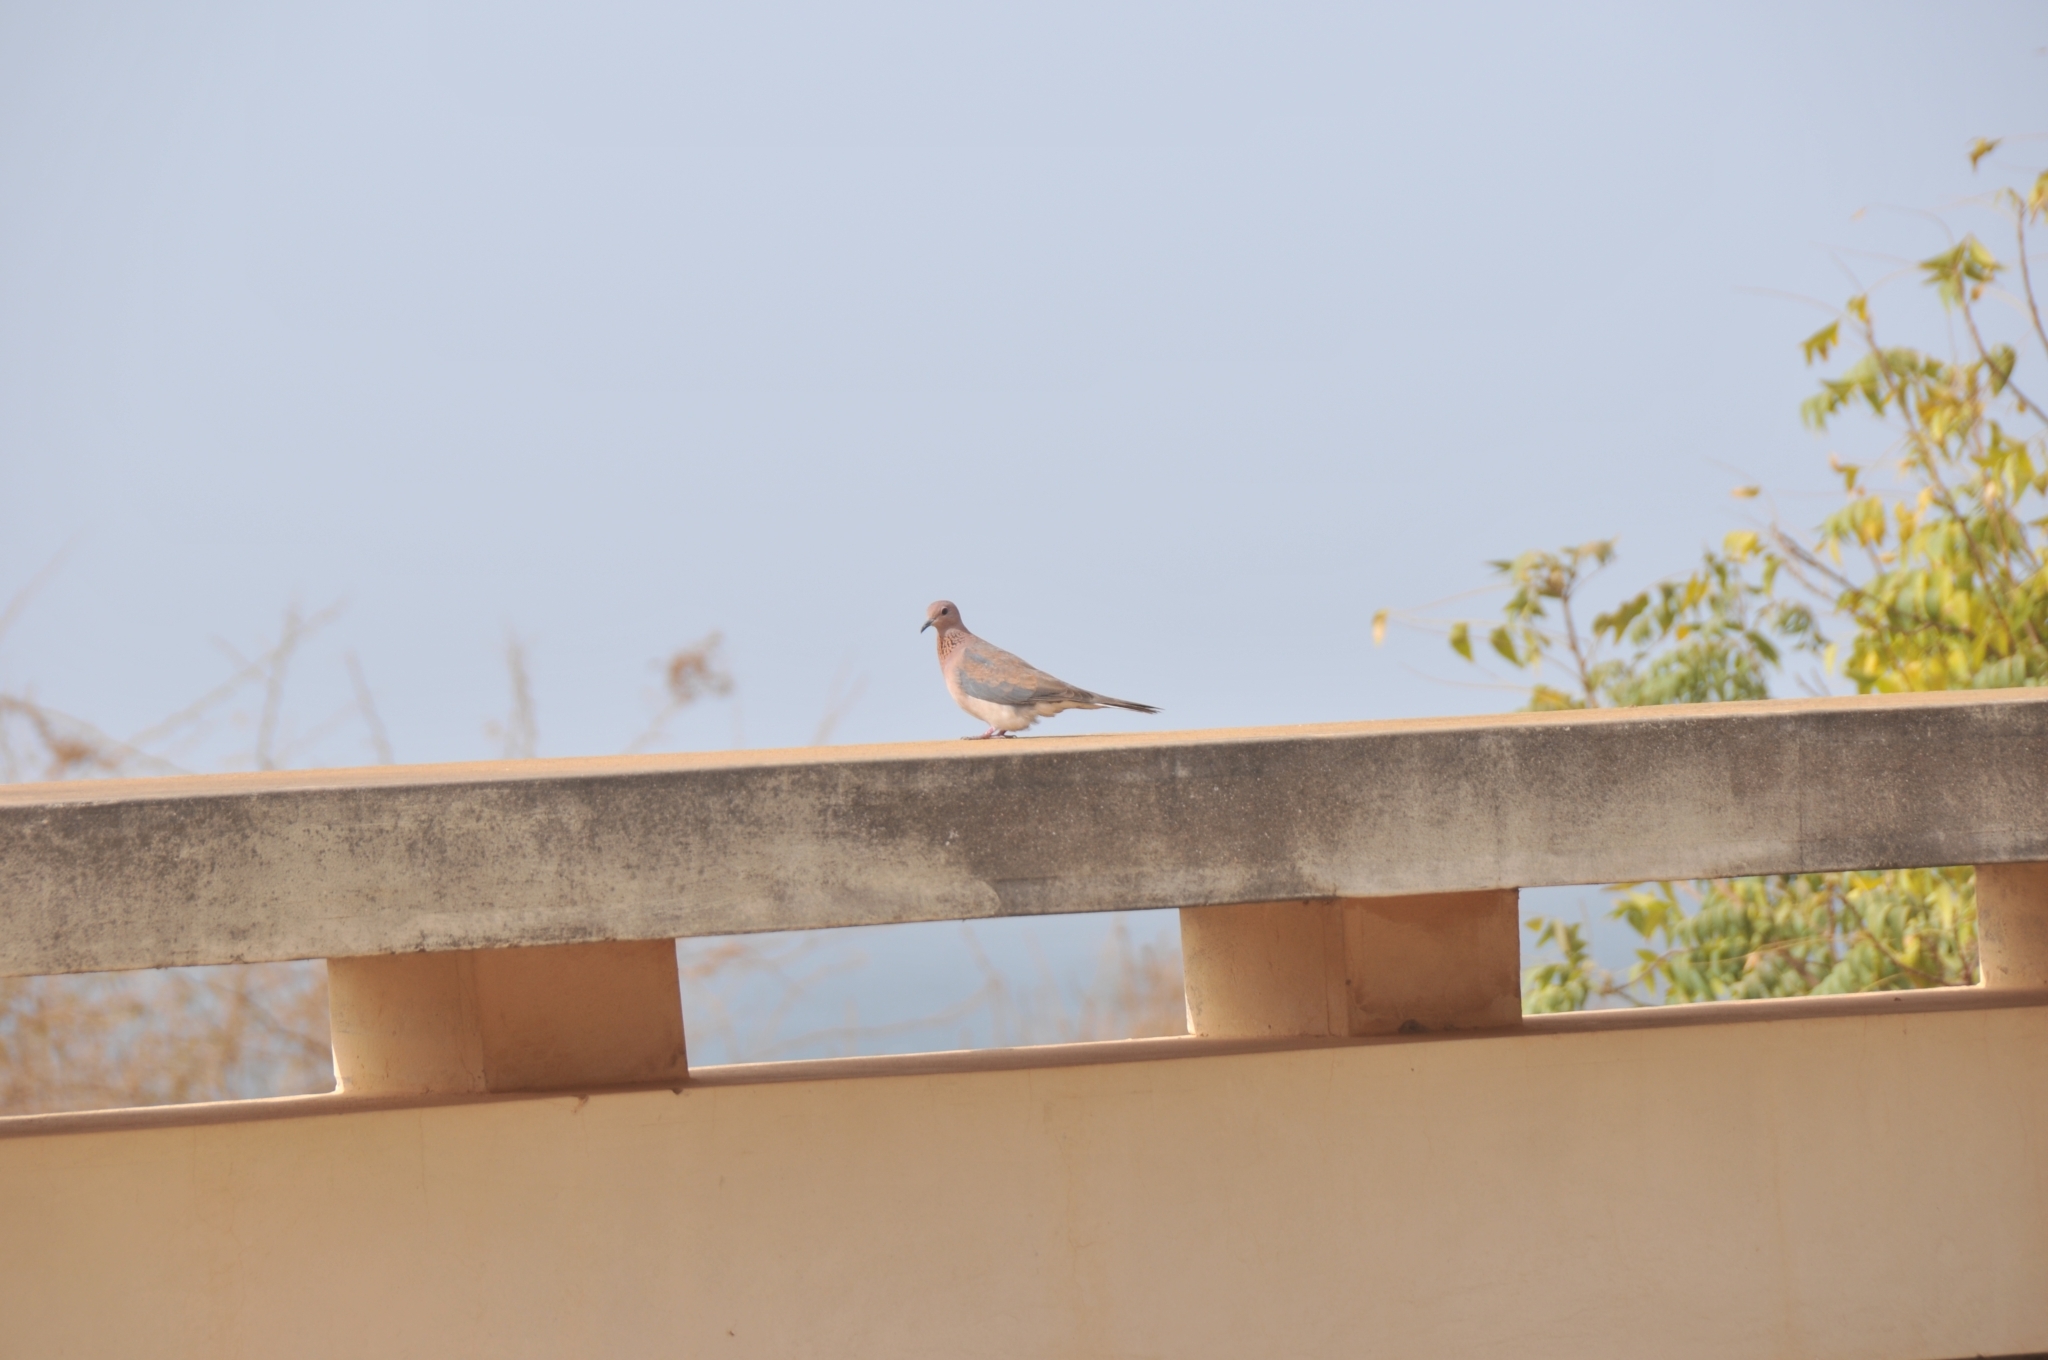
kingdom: Animalia
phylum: Chordata
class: Aves
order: Columbiformes
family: Columbidae
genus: Spilopelia
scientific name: Spilopelia senegalensis
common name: Laughing dove
